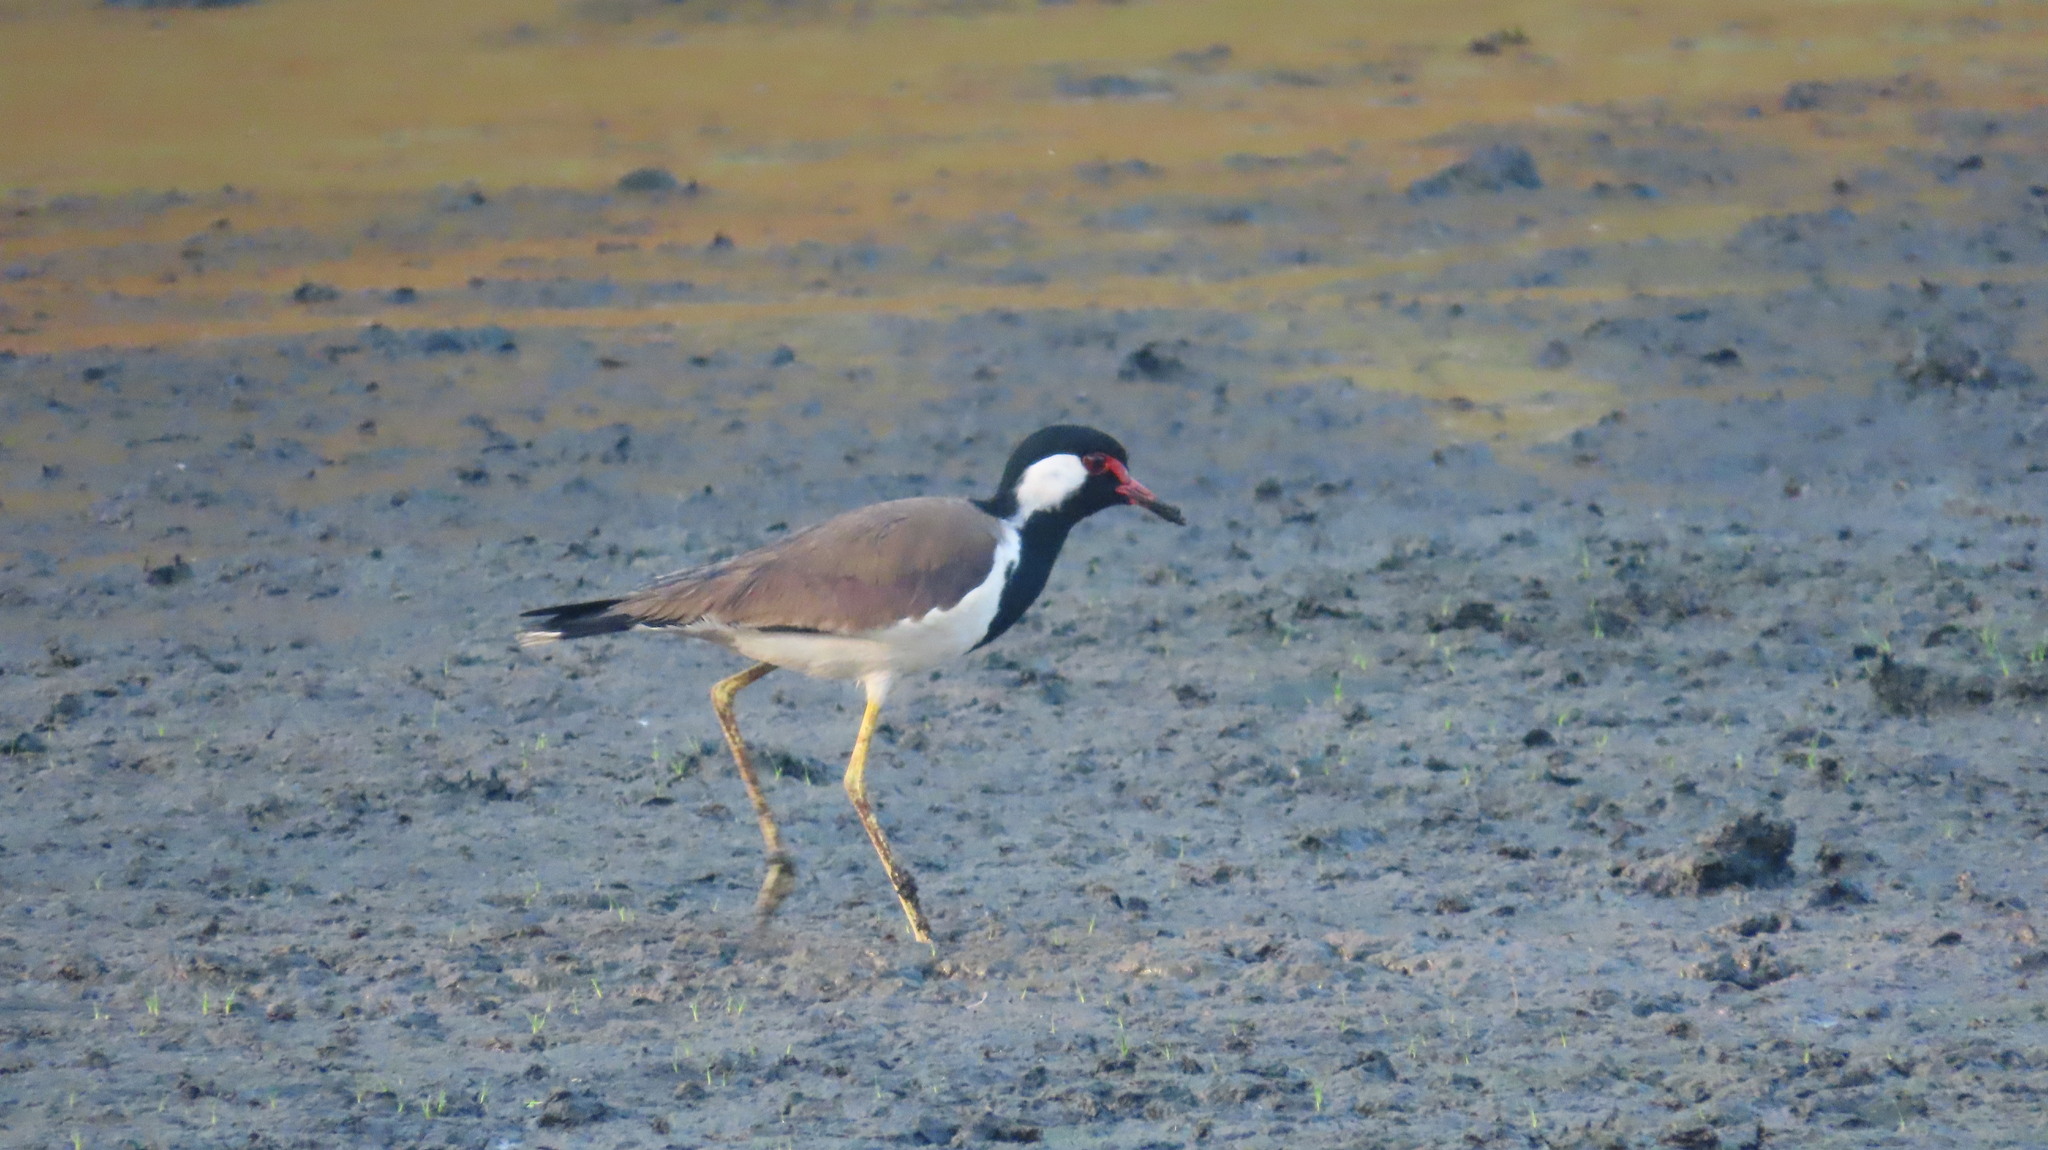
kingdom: Animalia
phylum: Chordata
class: Aves
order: Charadriiformes
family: Charadriidae
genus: Vanellus
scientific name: Vanellus indicus
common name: Red-wattled lapwing
